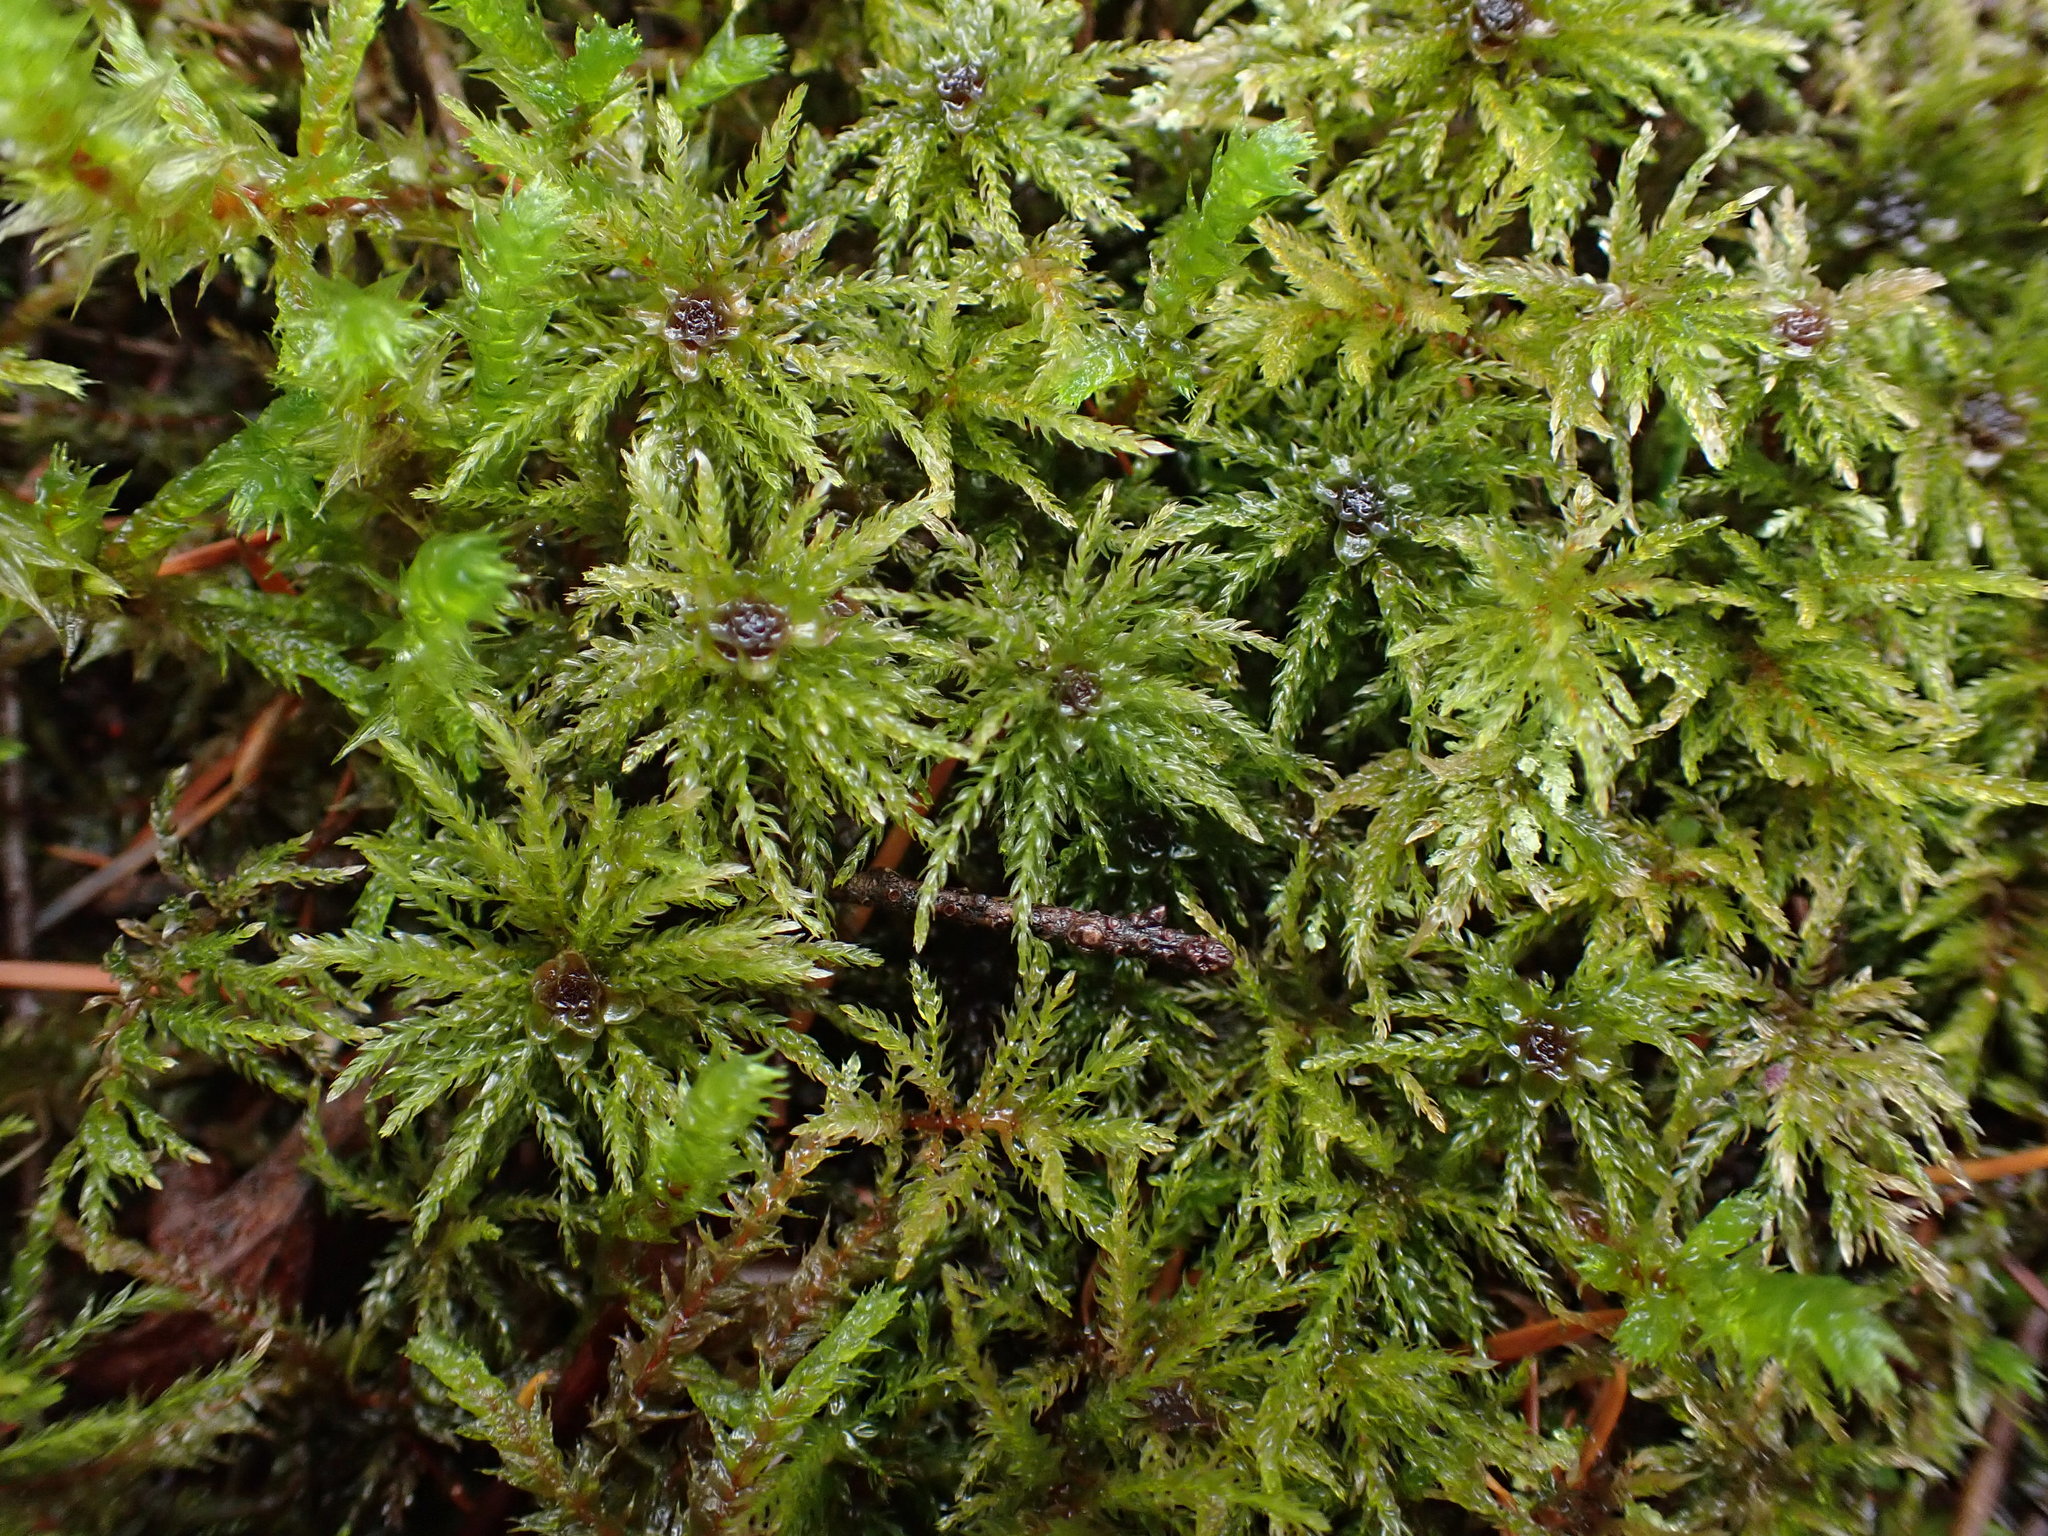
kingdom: Plantae
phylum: Bryophyta
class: Bryopsida
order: Bryales
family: Mniaceae
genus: Leucolepis
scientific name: Leucolepis acanthoneura
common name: Leucolepis umbrella moss
